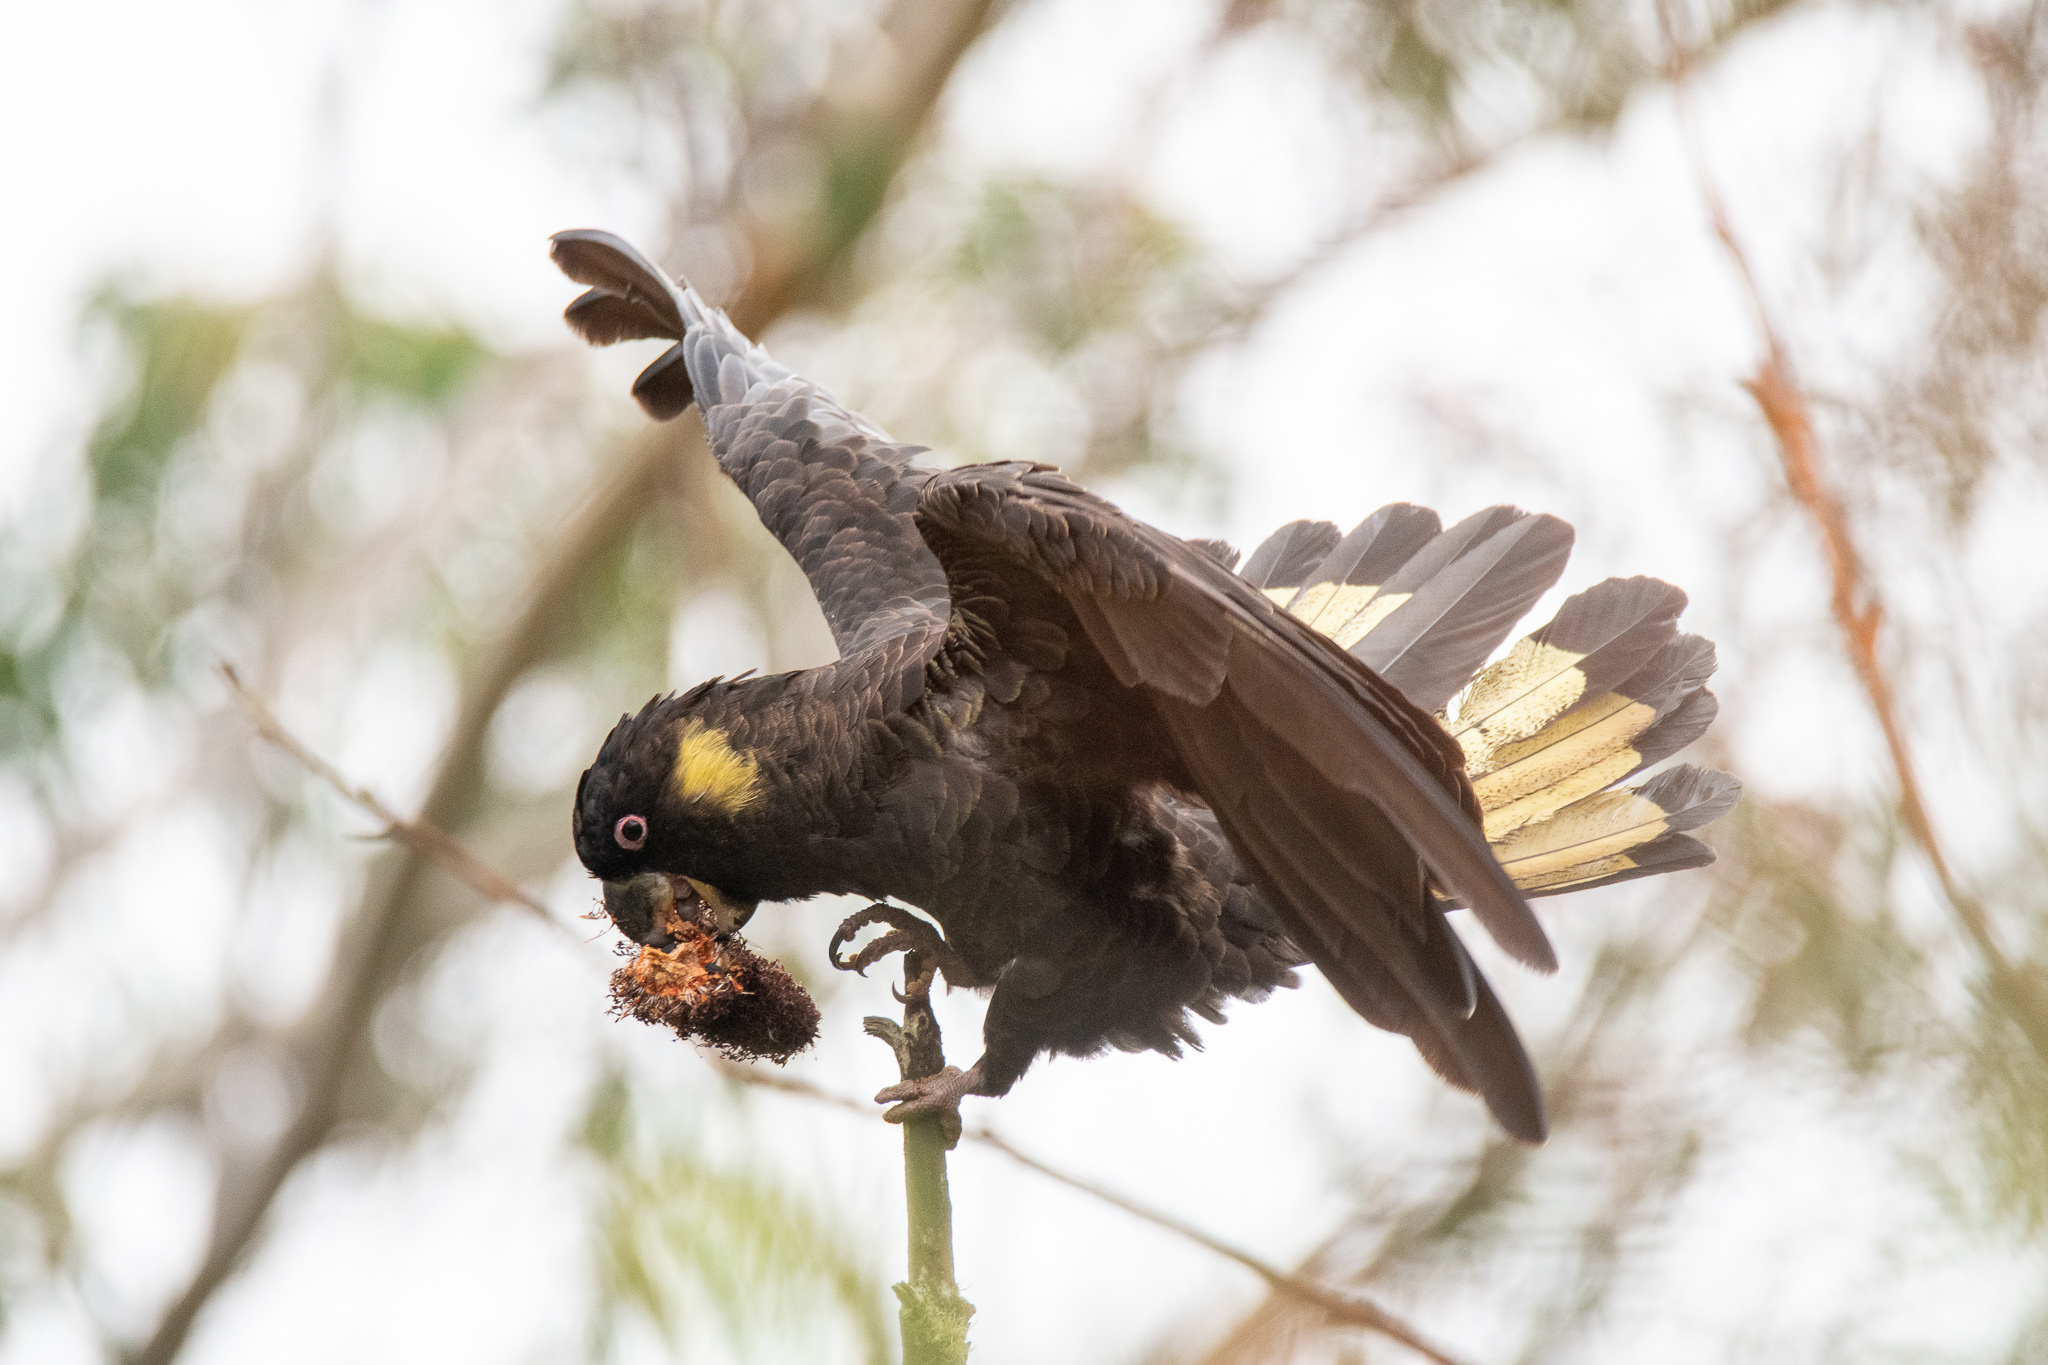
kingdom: Animalia
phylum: Chordata
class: Aves
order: Psittaciformes
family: Cacatuidae
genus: Zanda
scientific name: Zanda funerea
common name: Yellow-tailed black-cockatoo
